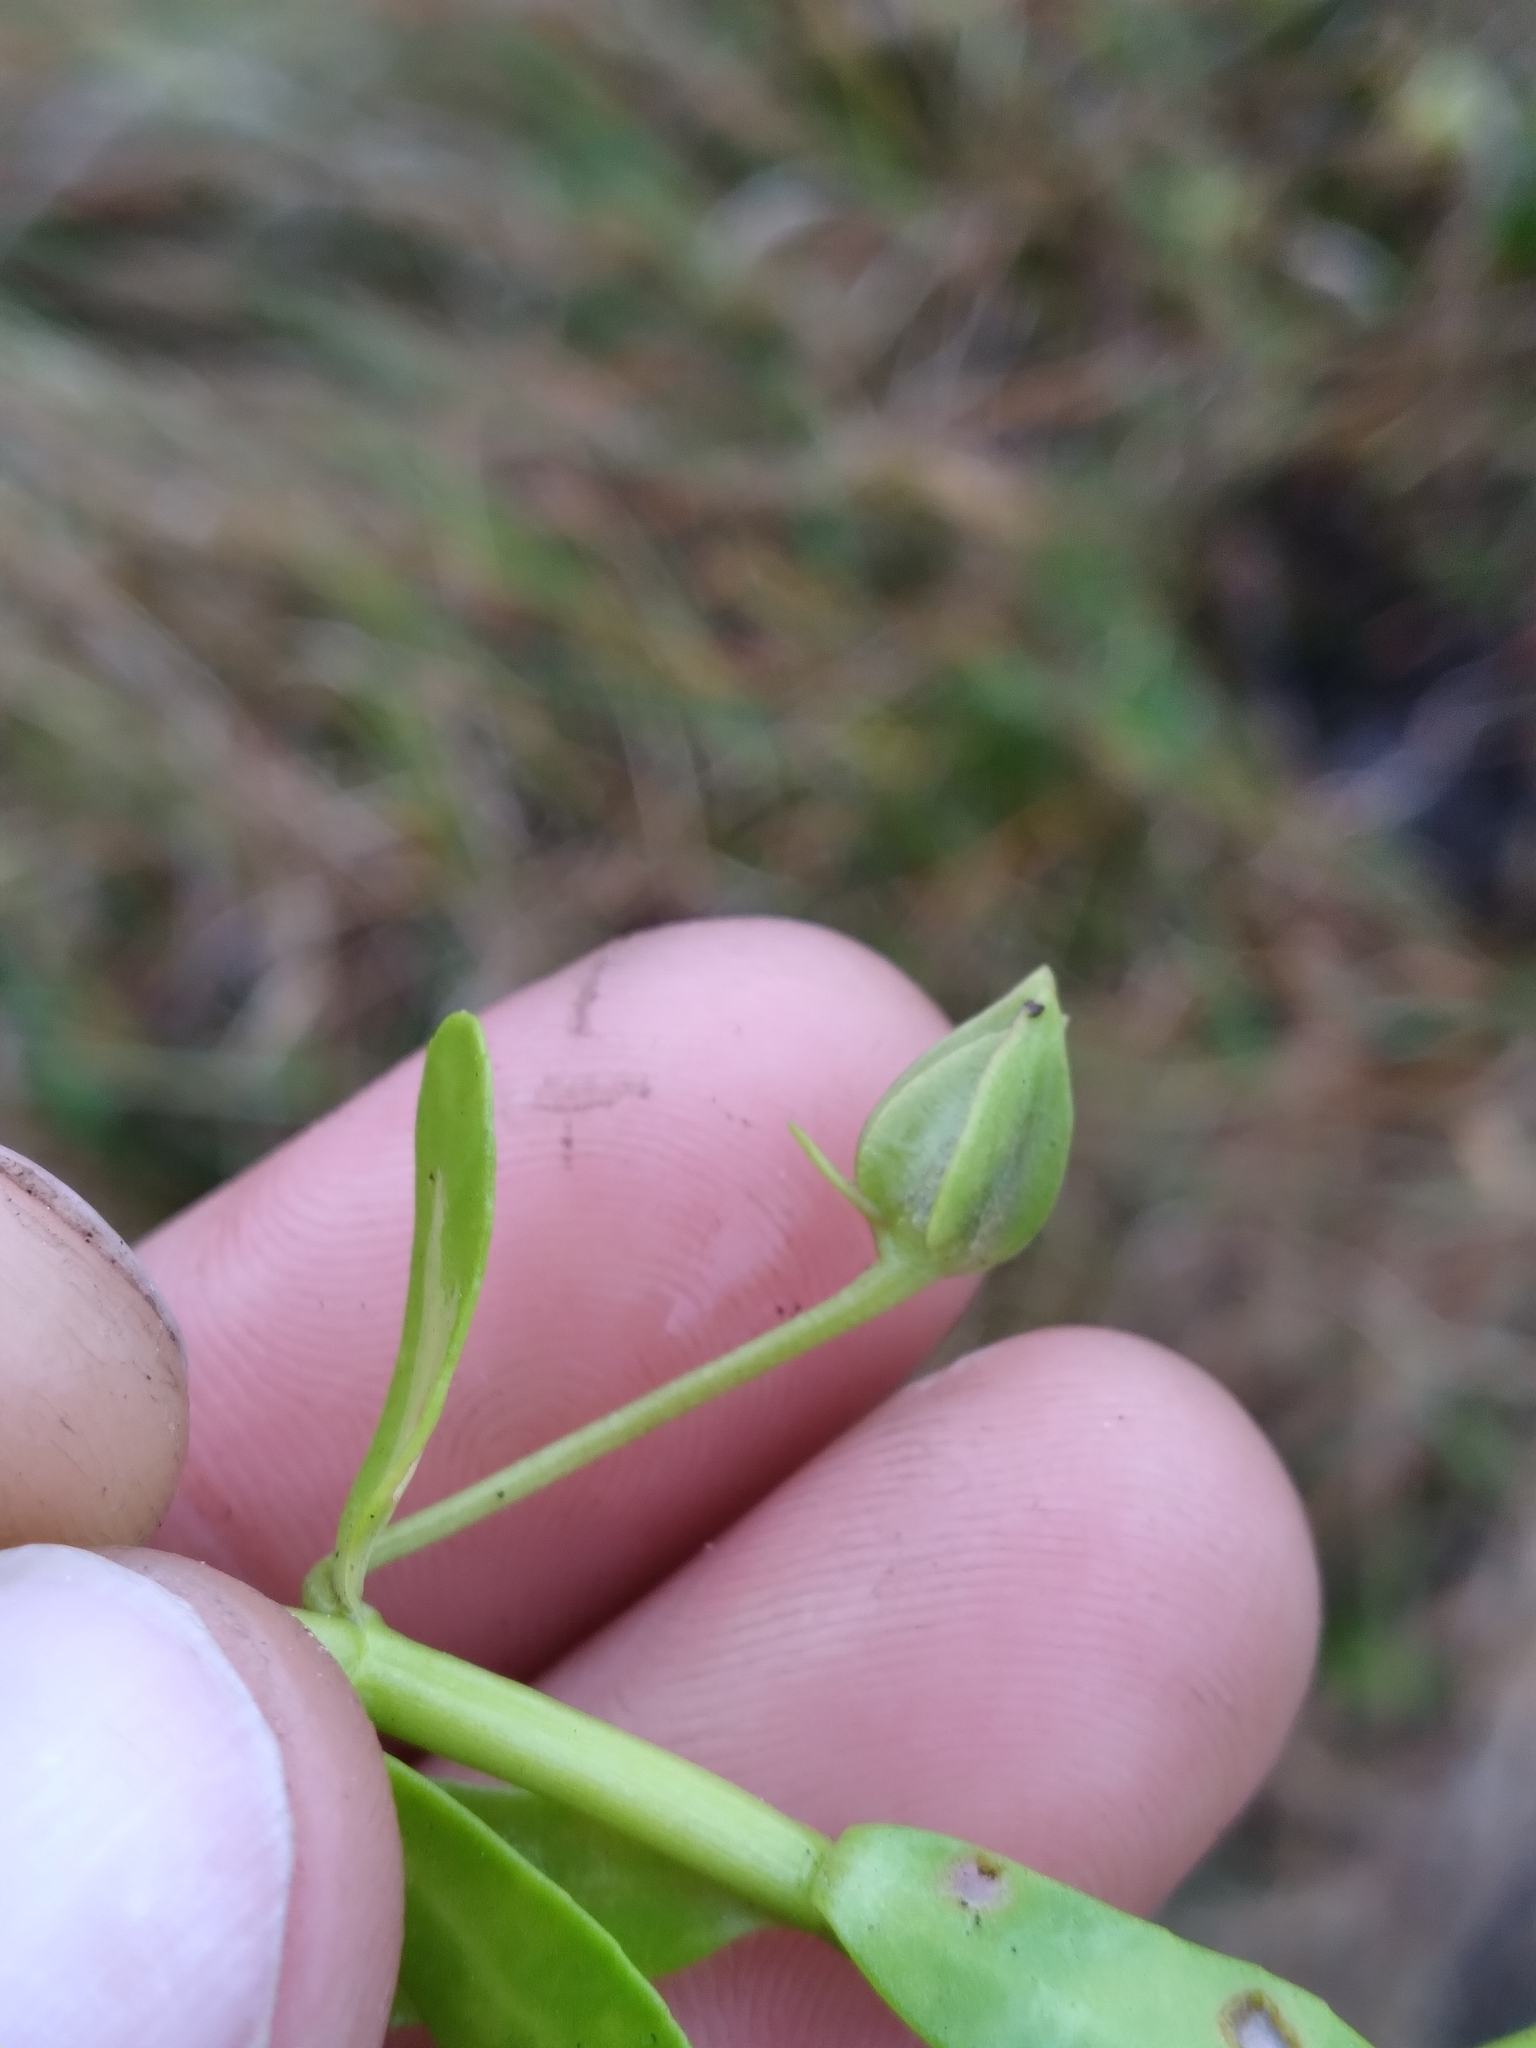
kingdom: Plantae
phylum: Tracheophyta
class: Magnoliopsida
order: Lamiales
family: Plantaginaceae
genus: Bacopa
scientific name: Bacopa monnieri
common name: Indian-pennywort
